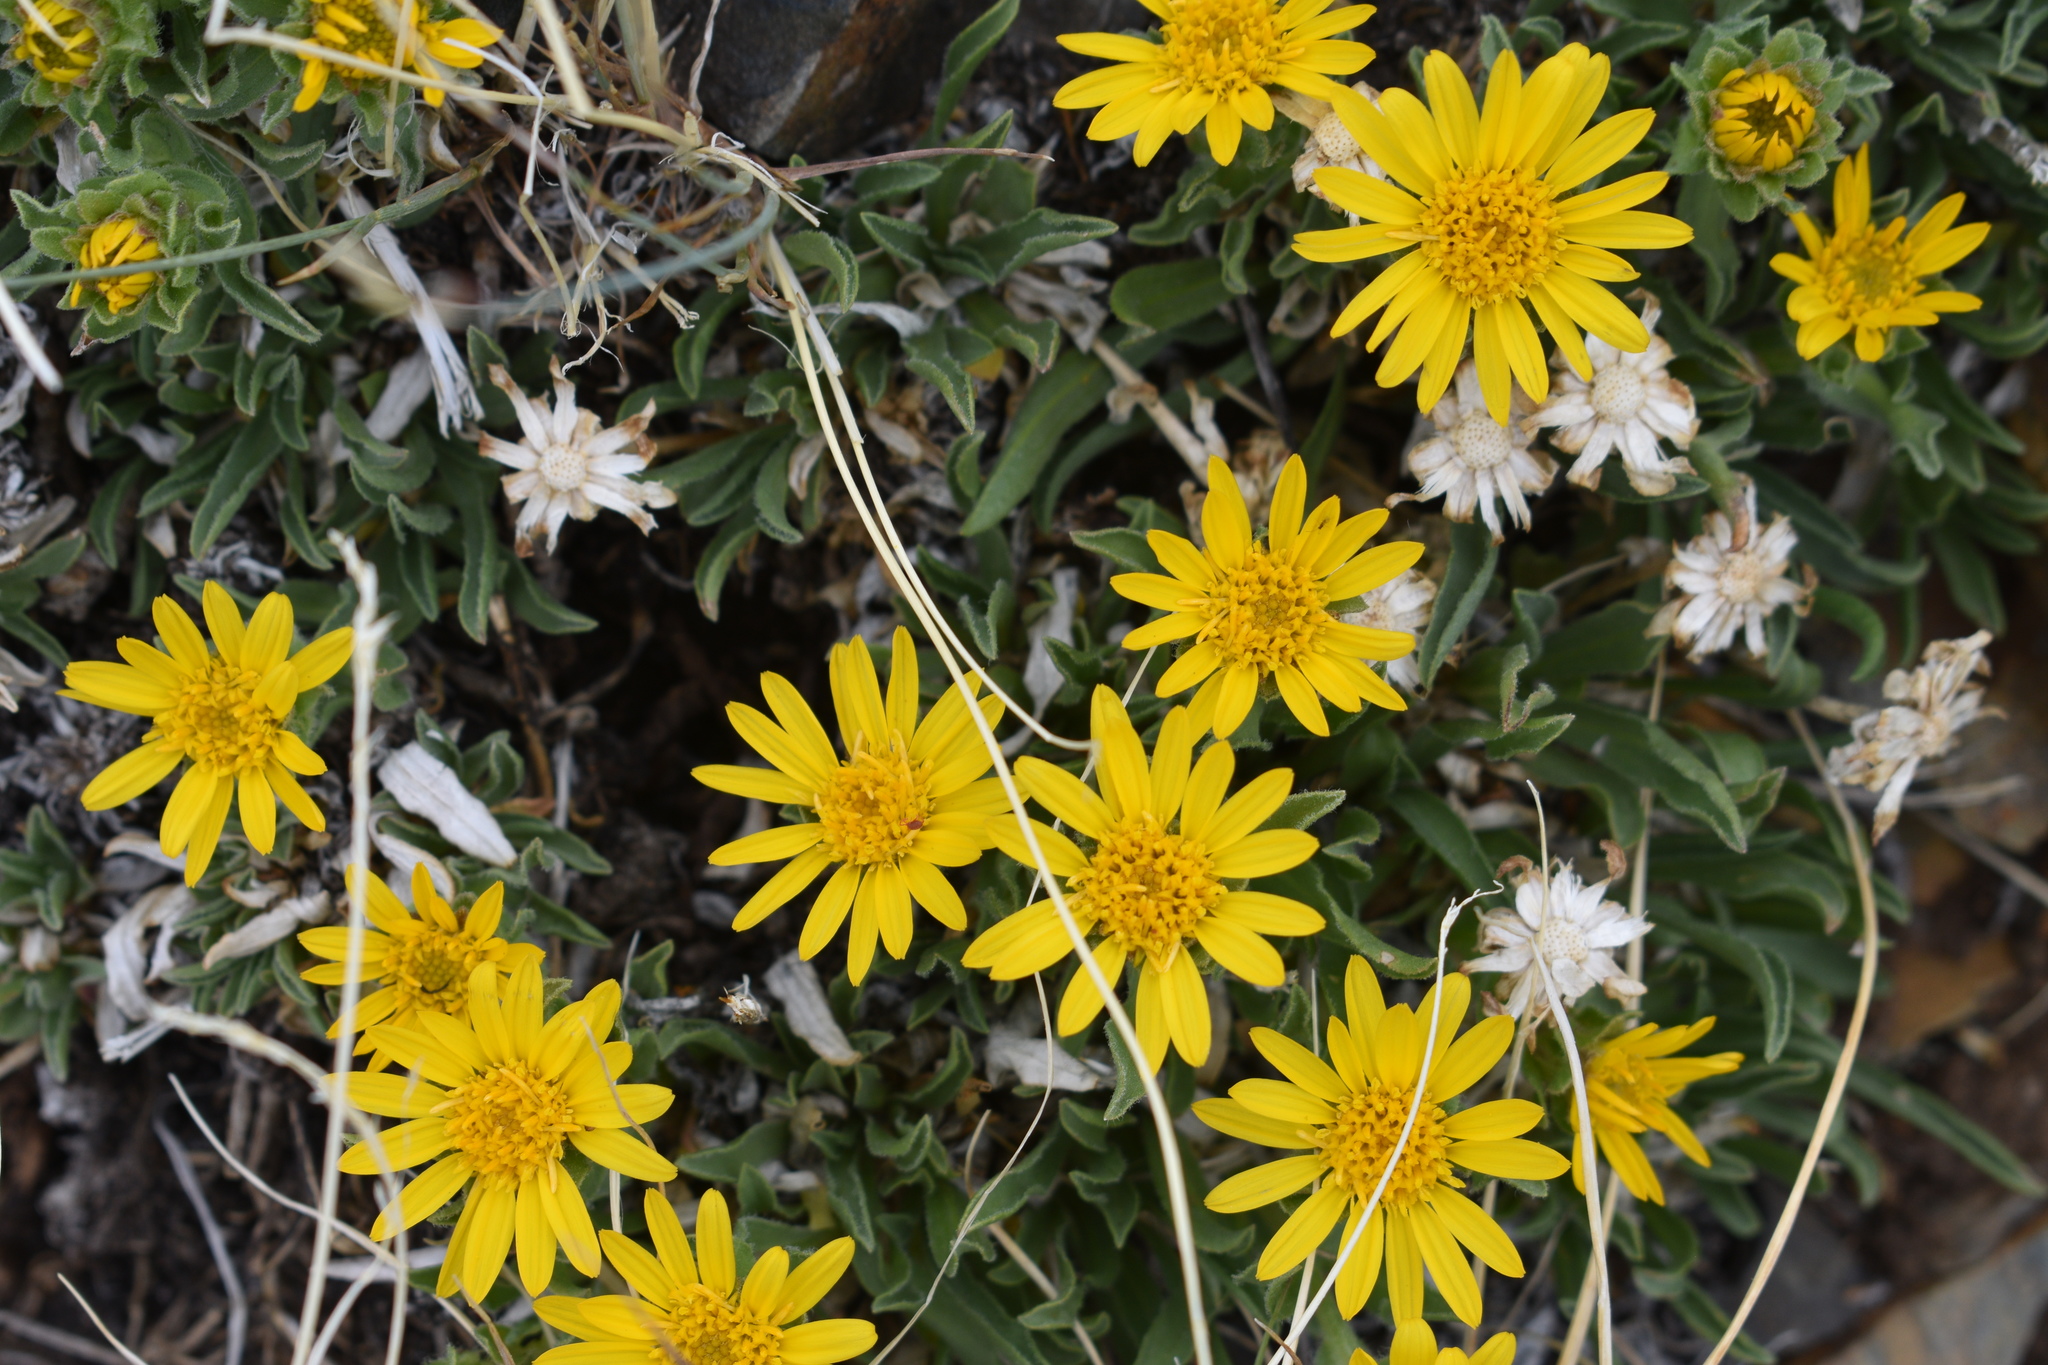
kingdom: Plantae
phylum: Tracheophyta
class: Magnoliopsida
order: Asterales
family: Asteraceae
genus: Tonestus
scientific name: Tonestus pygmaeus
